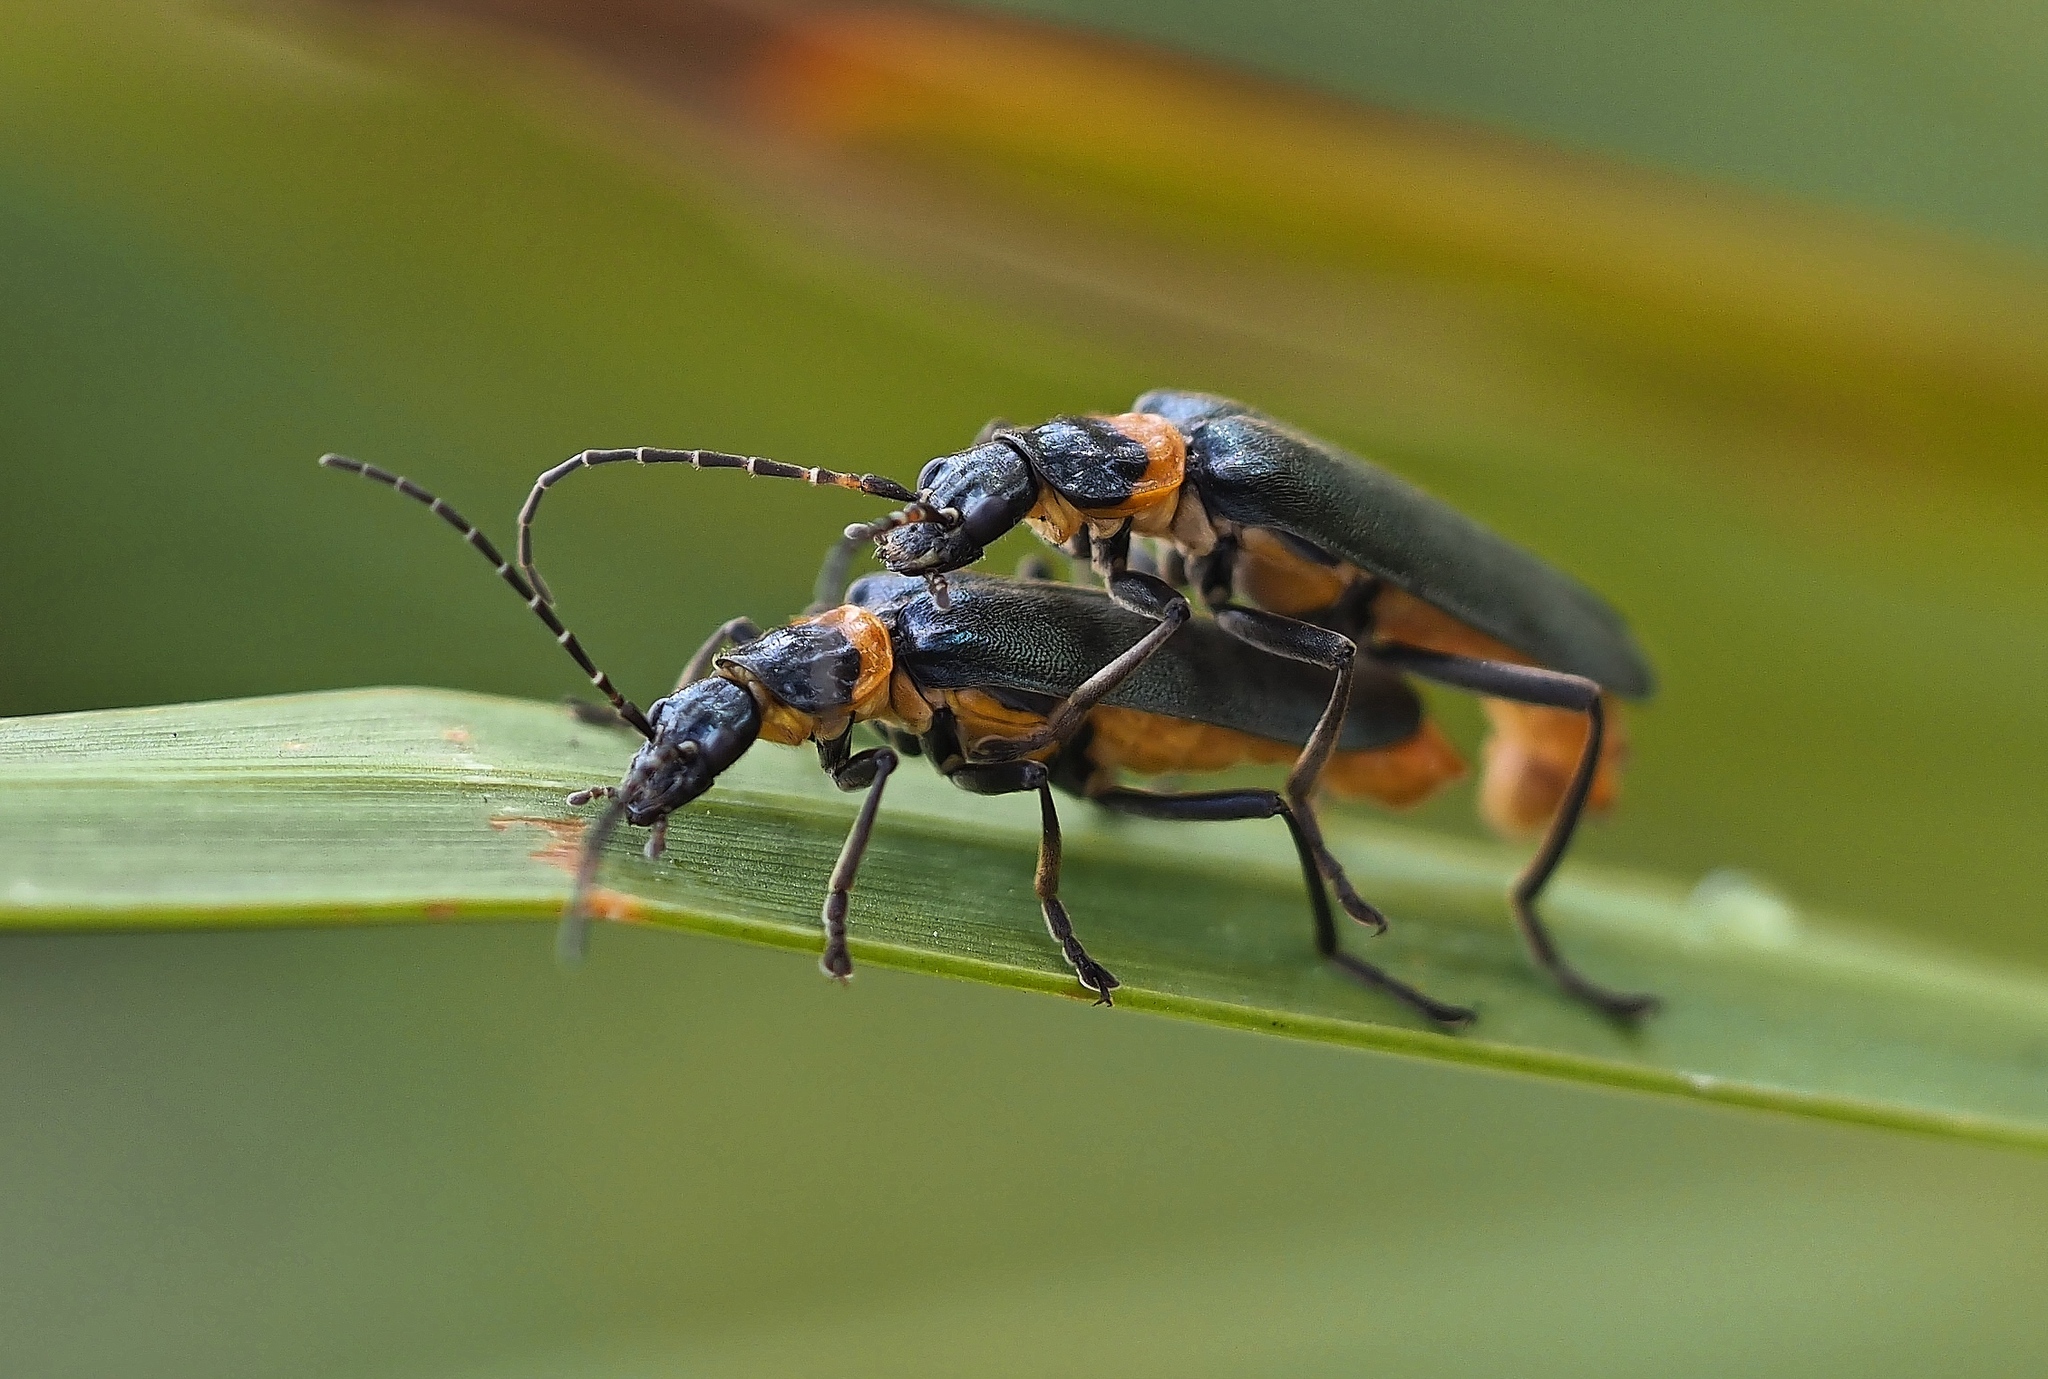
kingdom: Animalia
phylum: Arthropoda
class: Insecta
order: Coleoptera
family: Cantharidae
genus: Chauliognathus
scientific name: Chauliognathus
